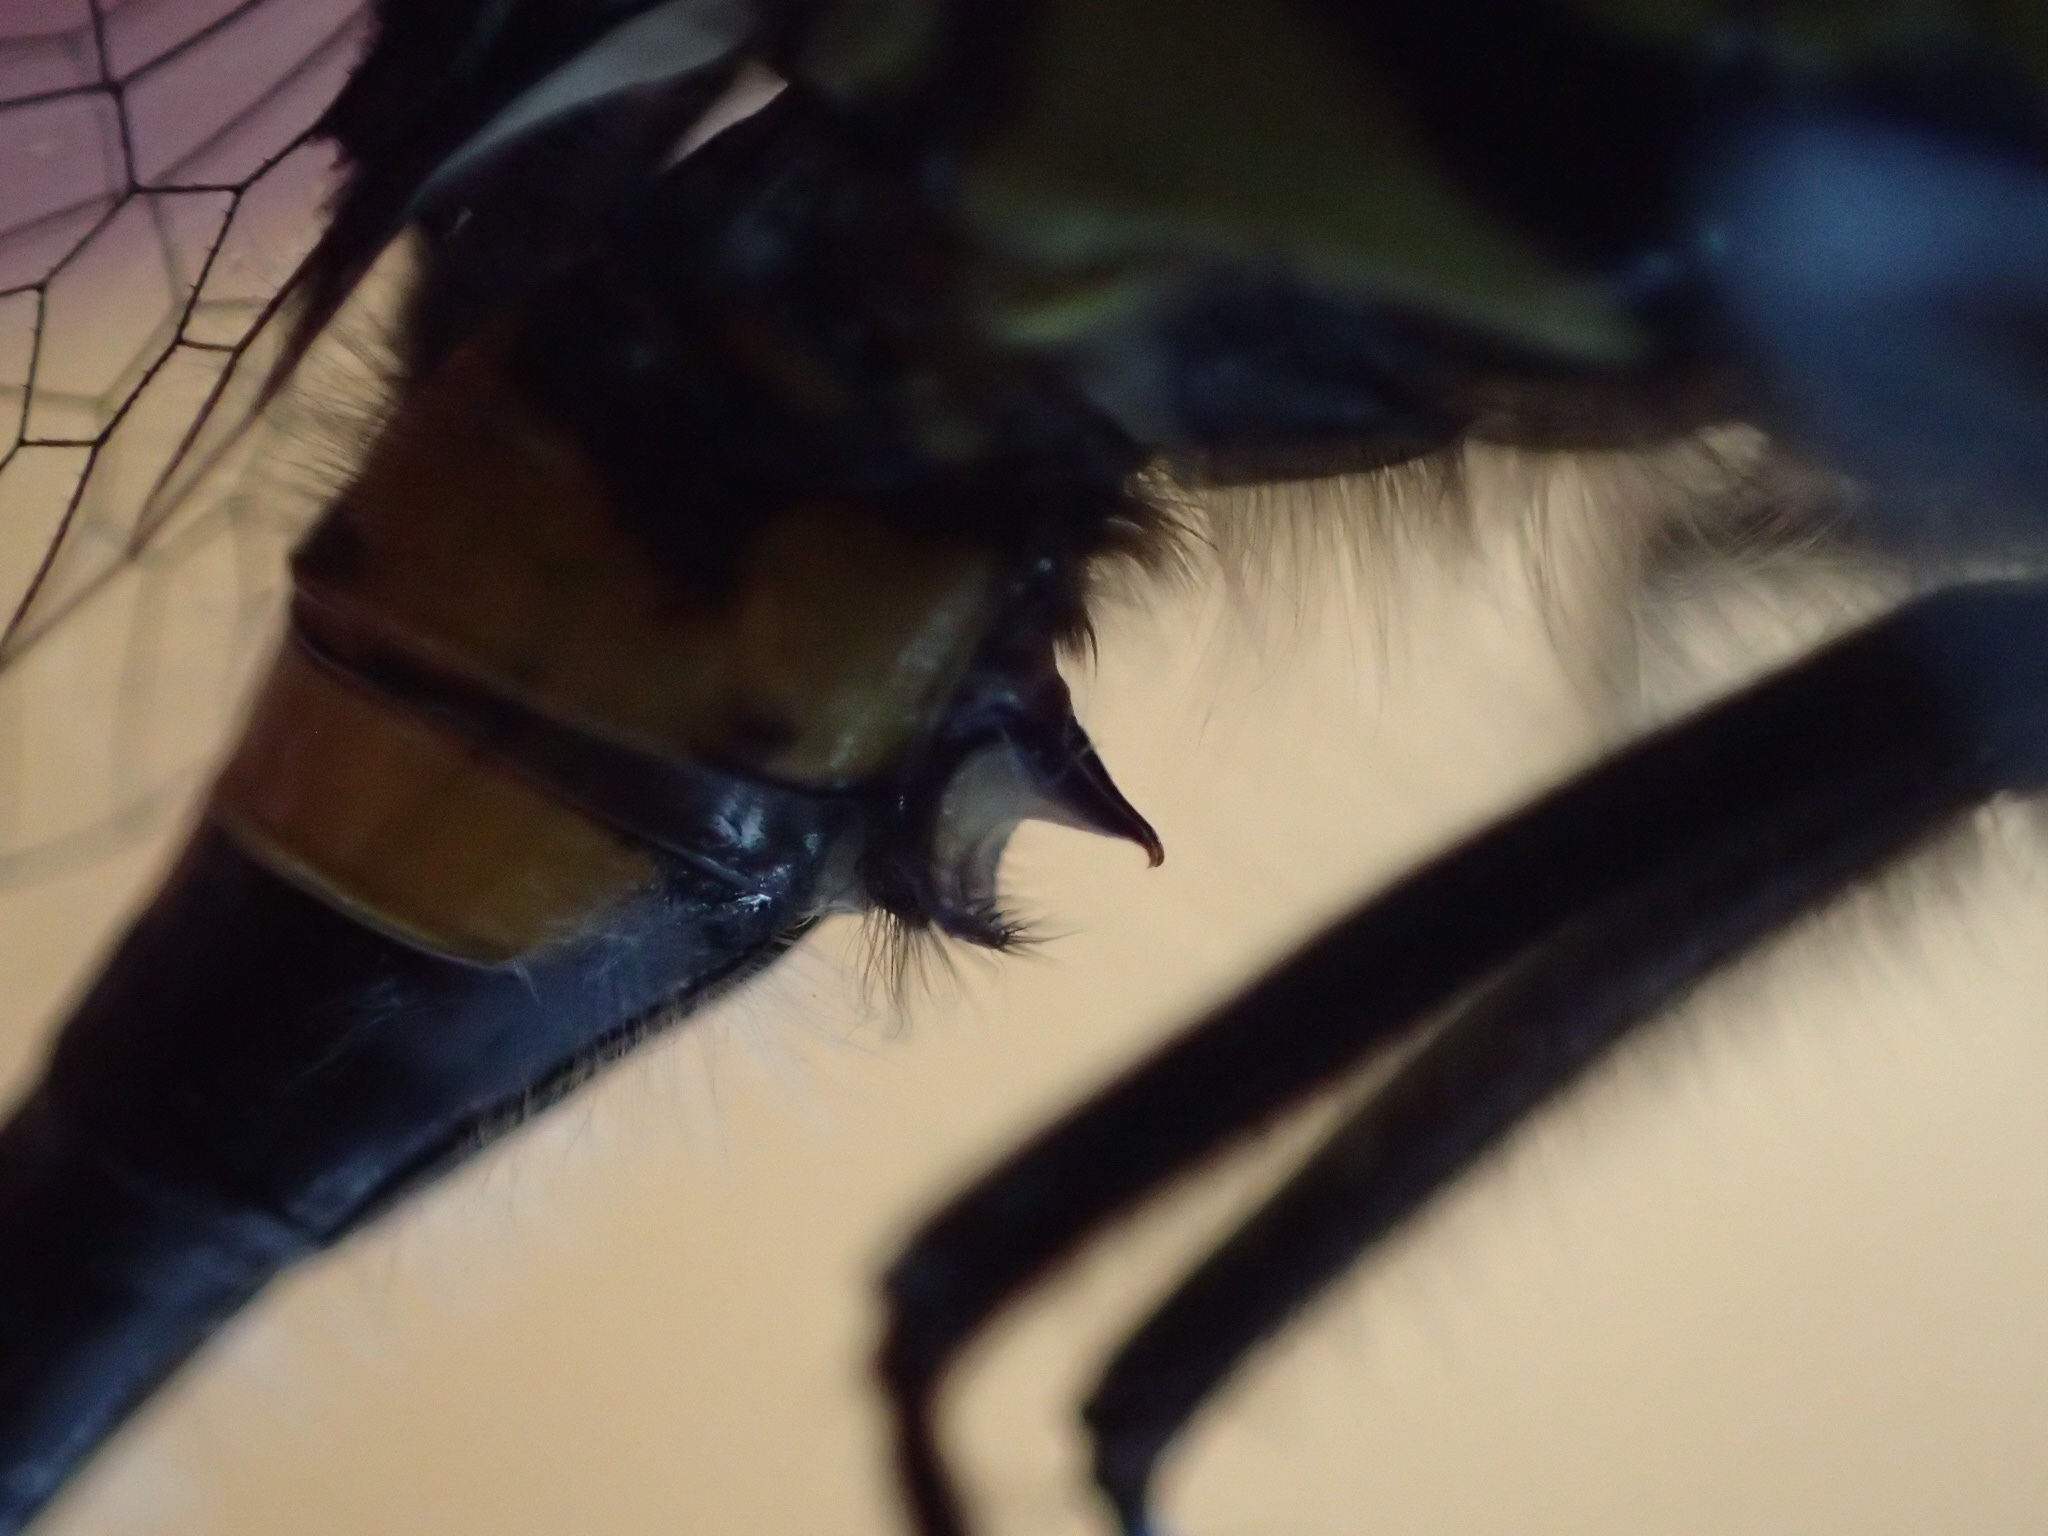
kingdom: Animalia
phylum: Arthropoda
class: Insecta
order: Odonata
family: Libellulidae
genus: Leucorrhinia
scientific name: Leucorrhinia glacialis
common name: Crimson-ringed whiteface
